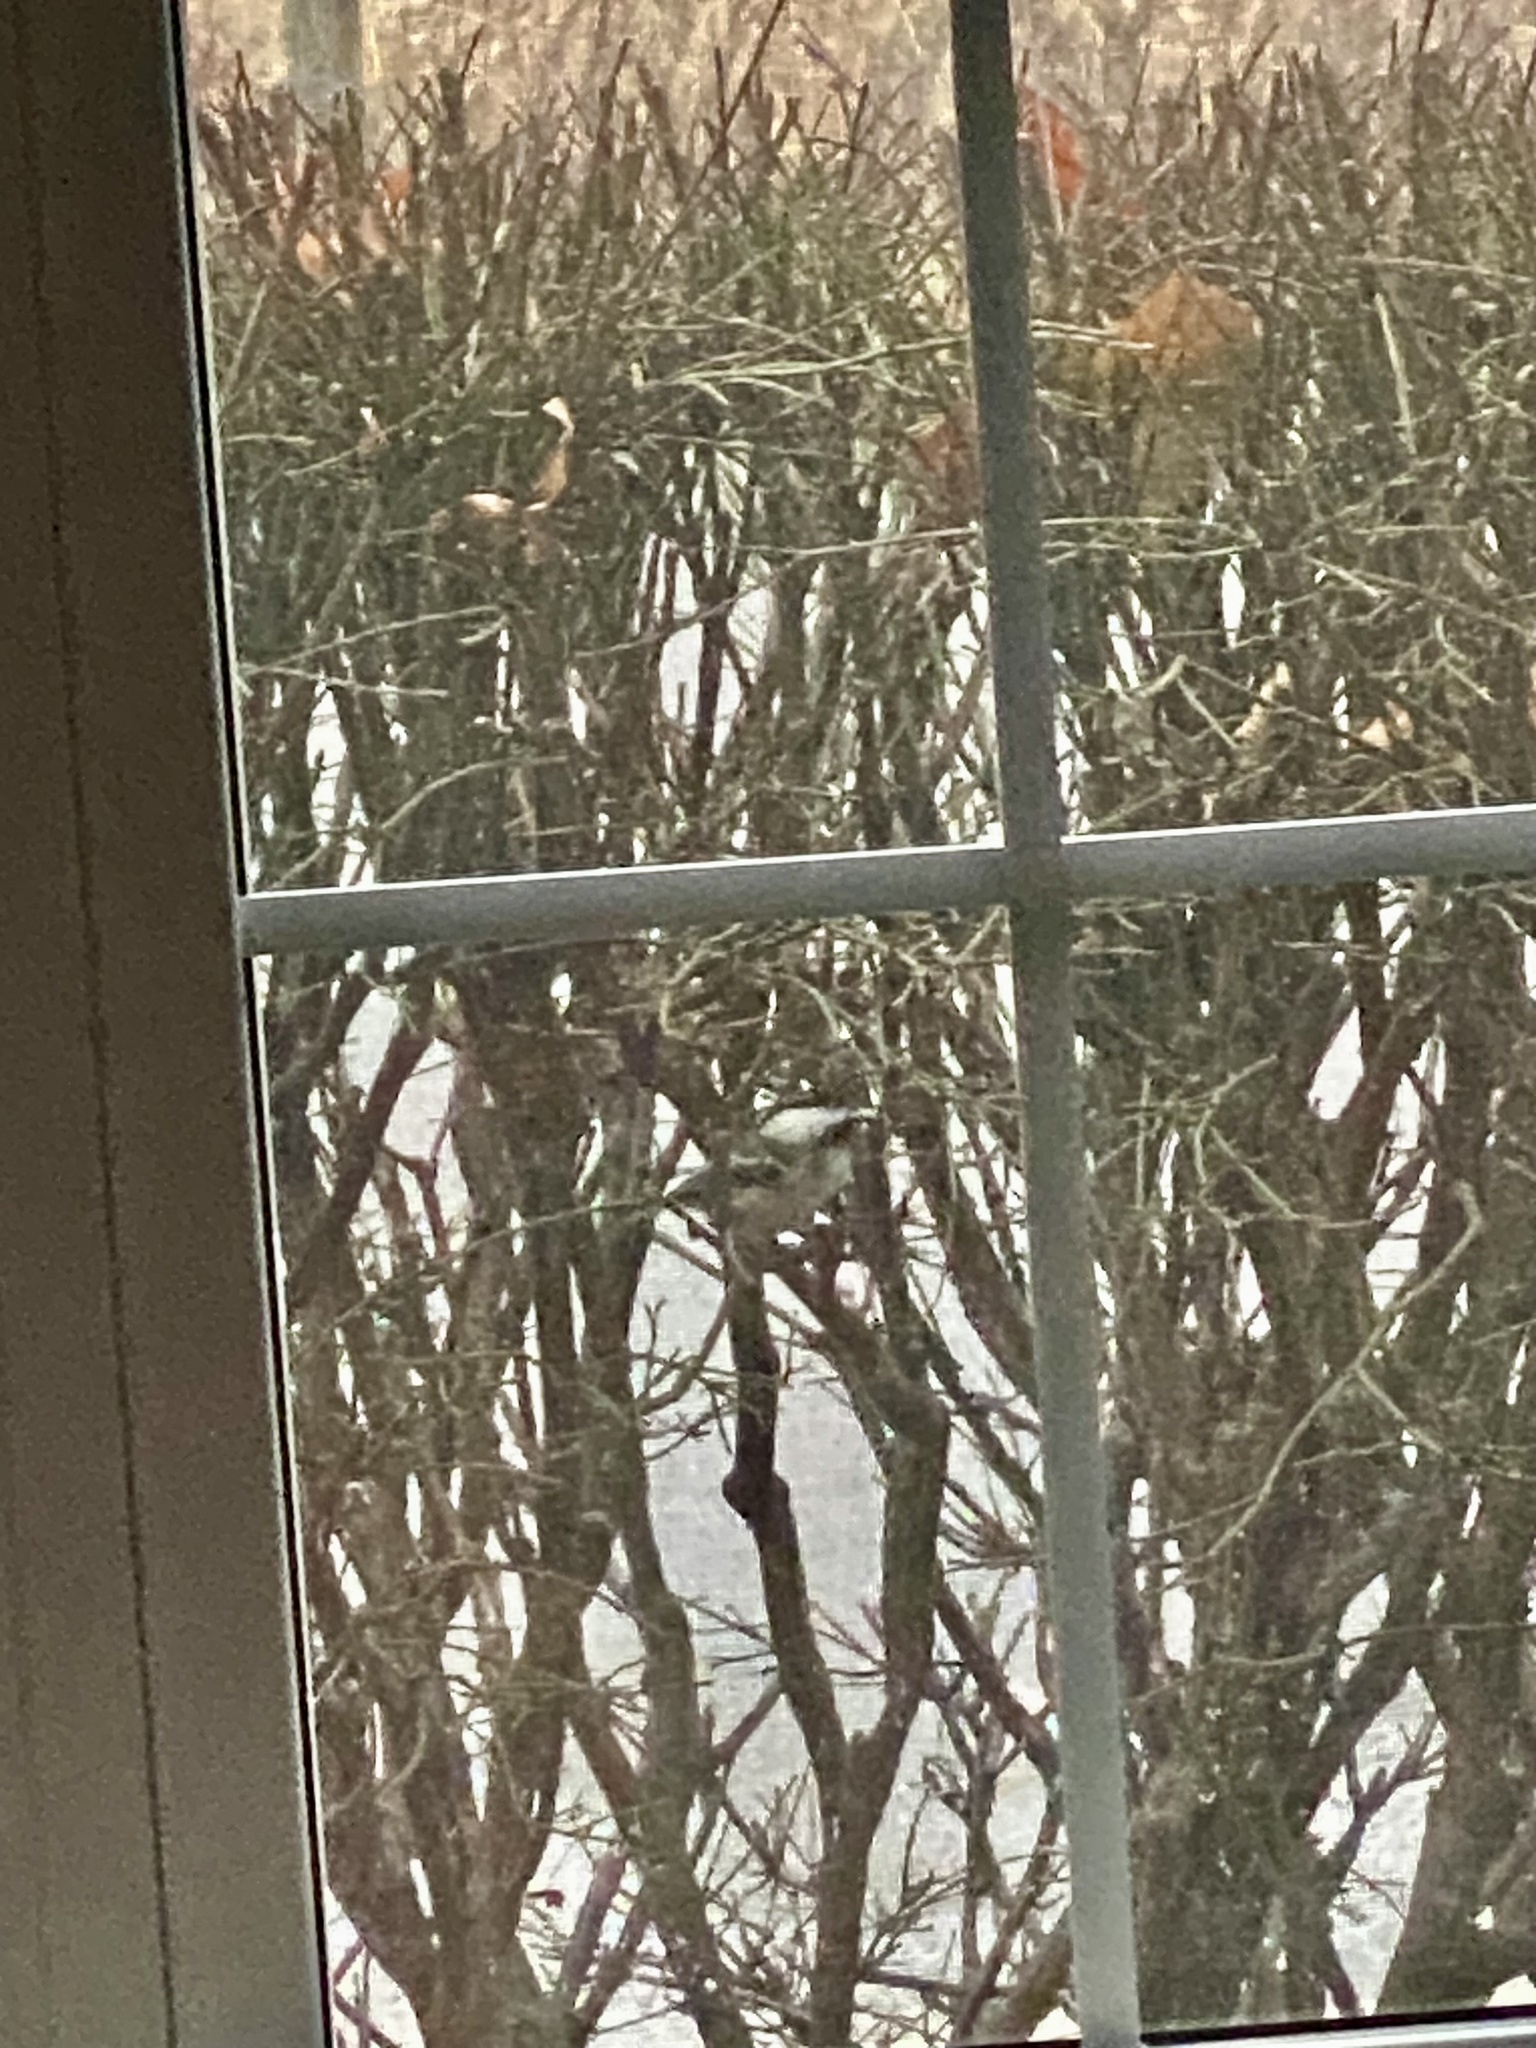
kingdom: Animalia
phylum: Chordata
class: Aves
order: Passeriformes
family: Paridae
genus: Poecile
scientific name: Poecile atricapillus
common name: Black-capped chickadee
